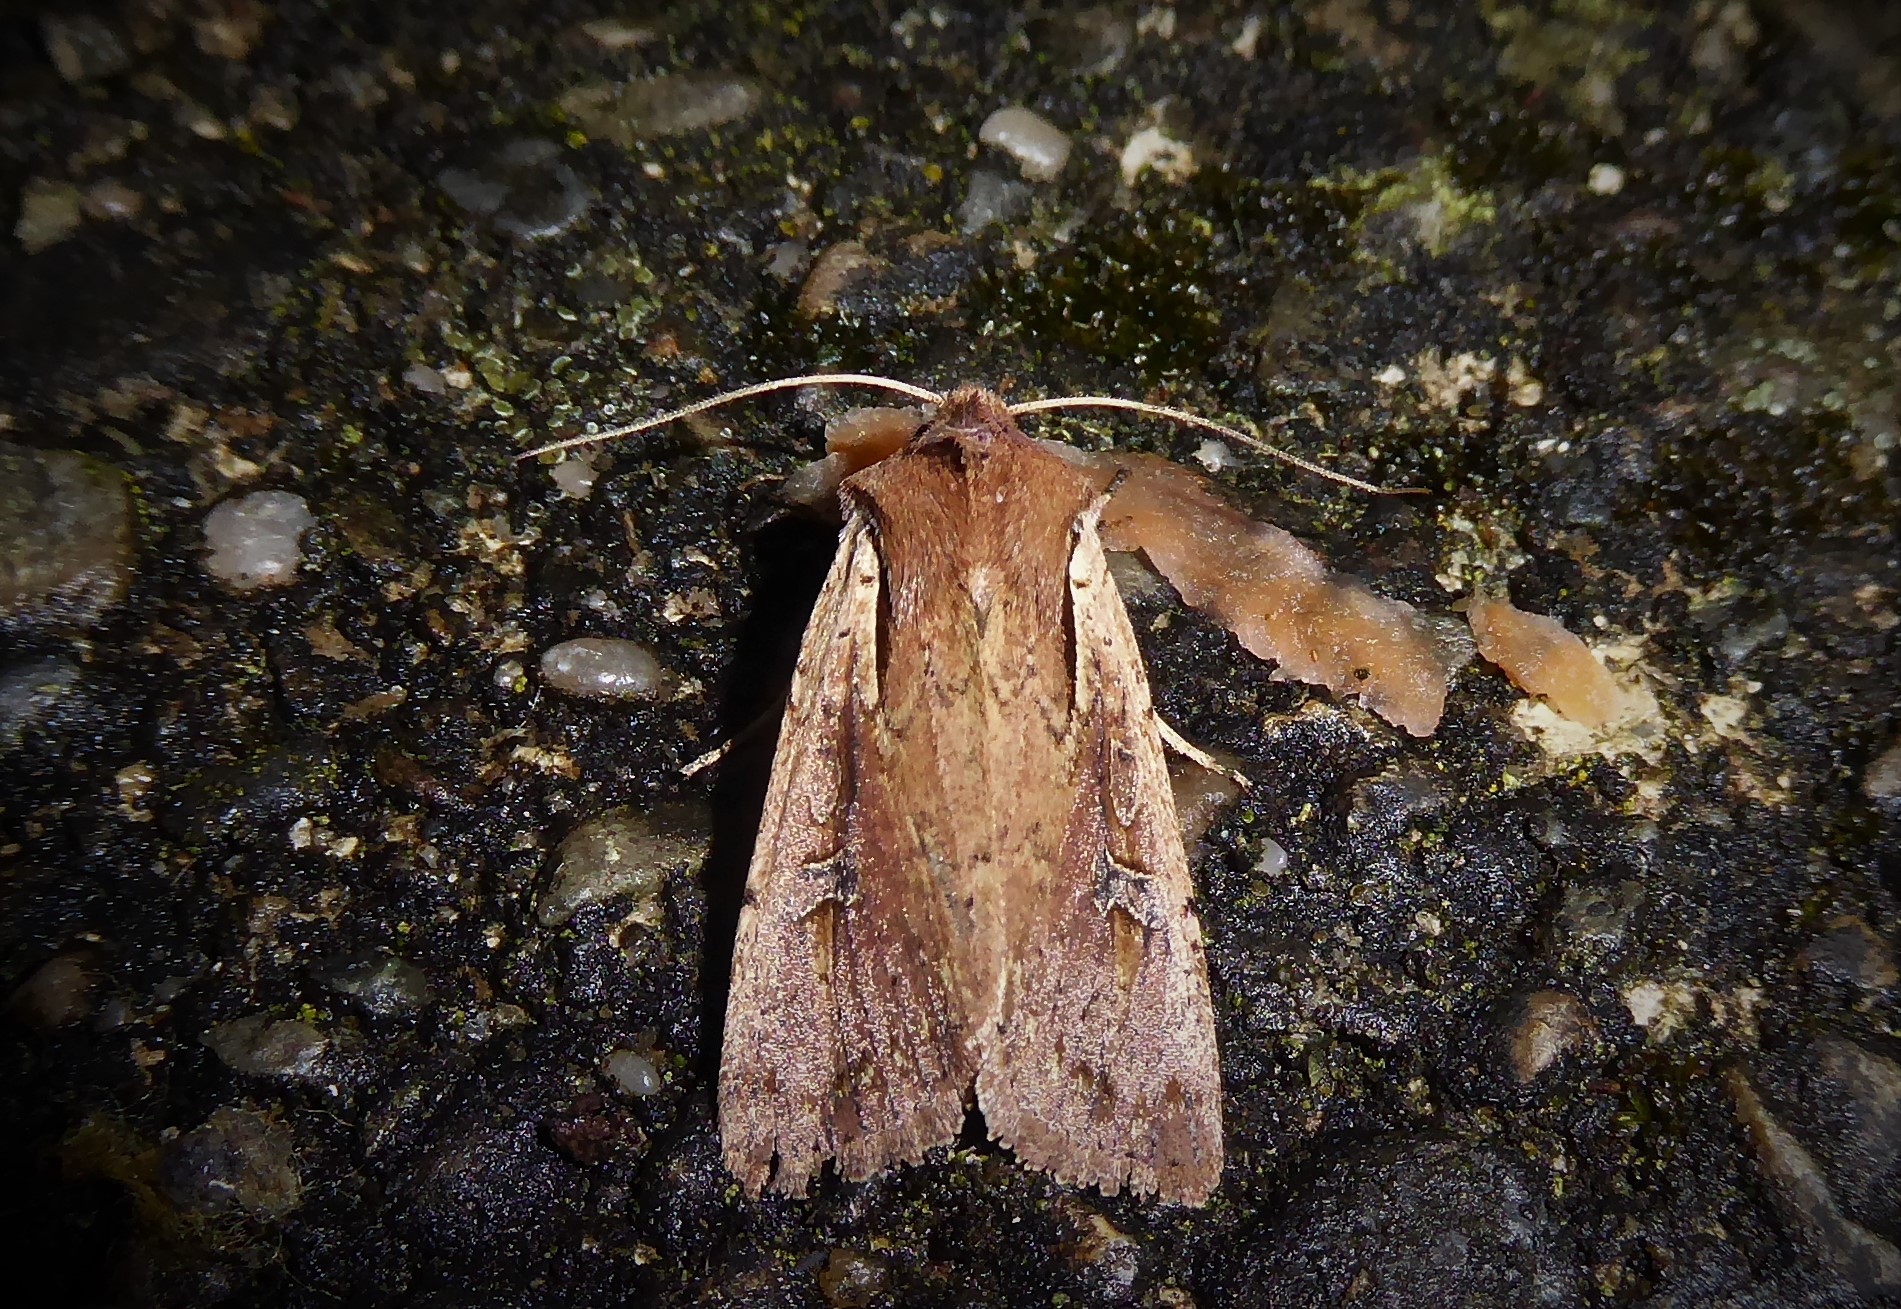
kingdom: Animalia
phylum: Arthropoda
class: Insecta
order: Lepidoptera
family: Noctuidae
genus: Ichneutica
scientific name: Ichneutica atristriga
